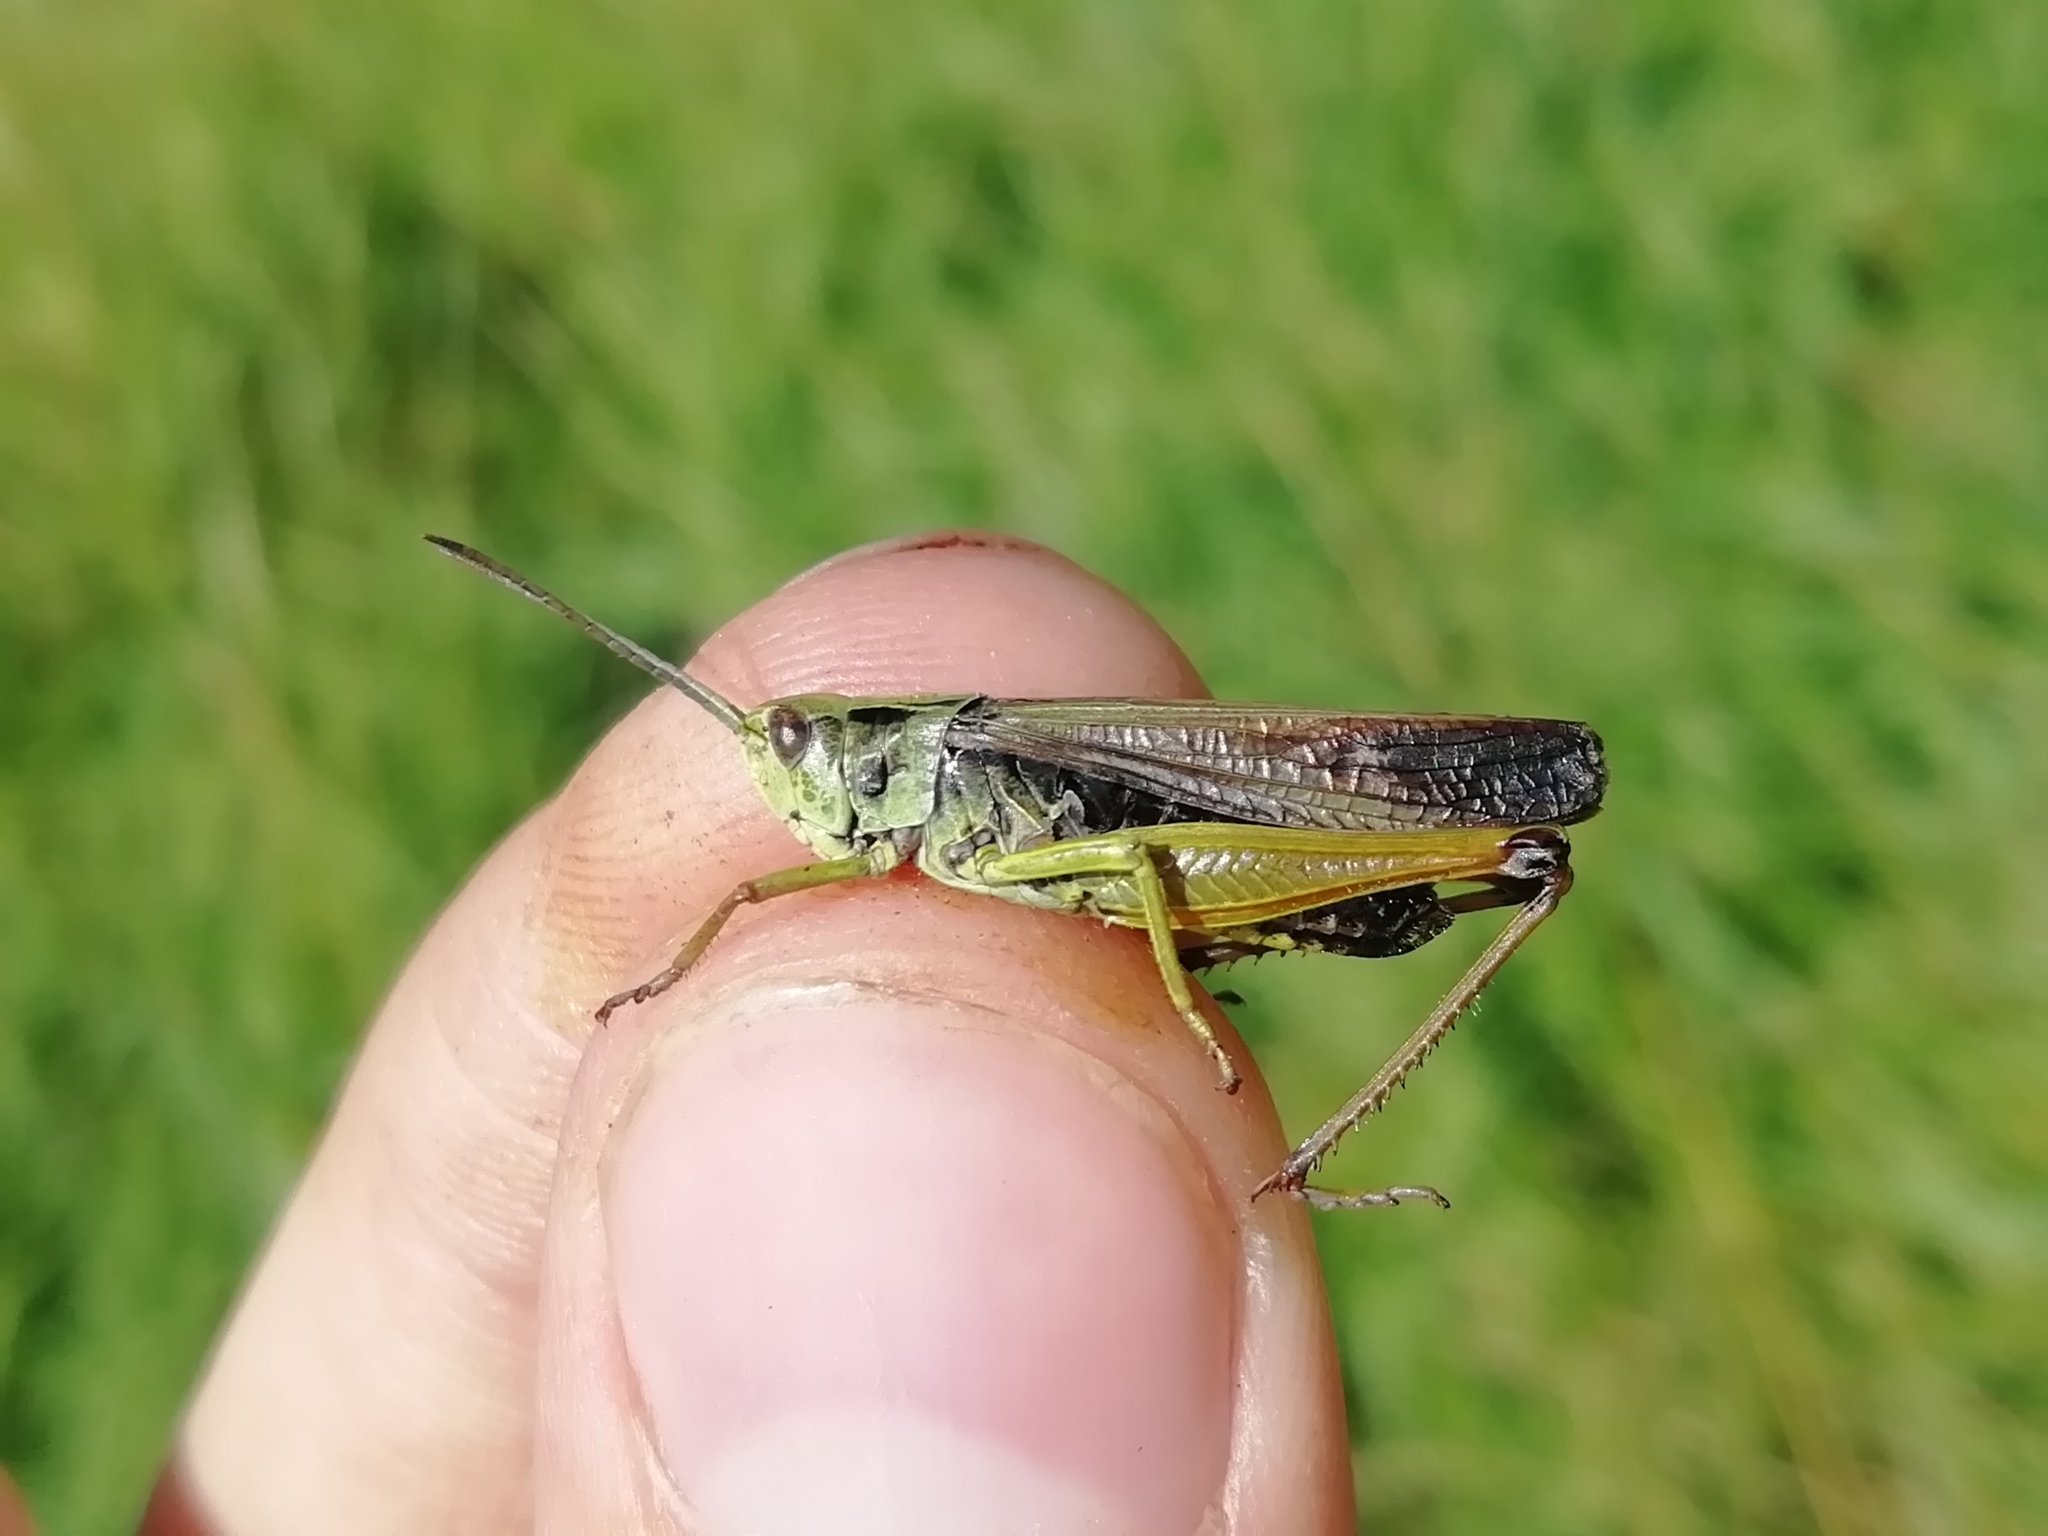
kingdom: Animalia
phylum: Arthropoda
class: Insecta
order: Orthoptera
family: Acrididae
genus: Omocestus
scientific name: Omocestus viridulus
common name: Common green grasshopper
